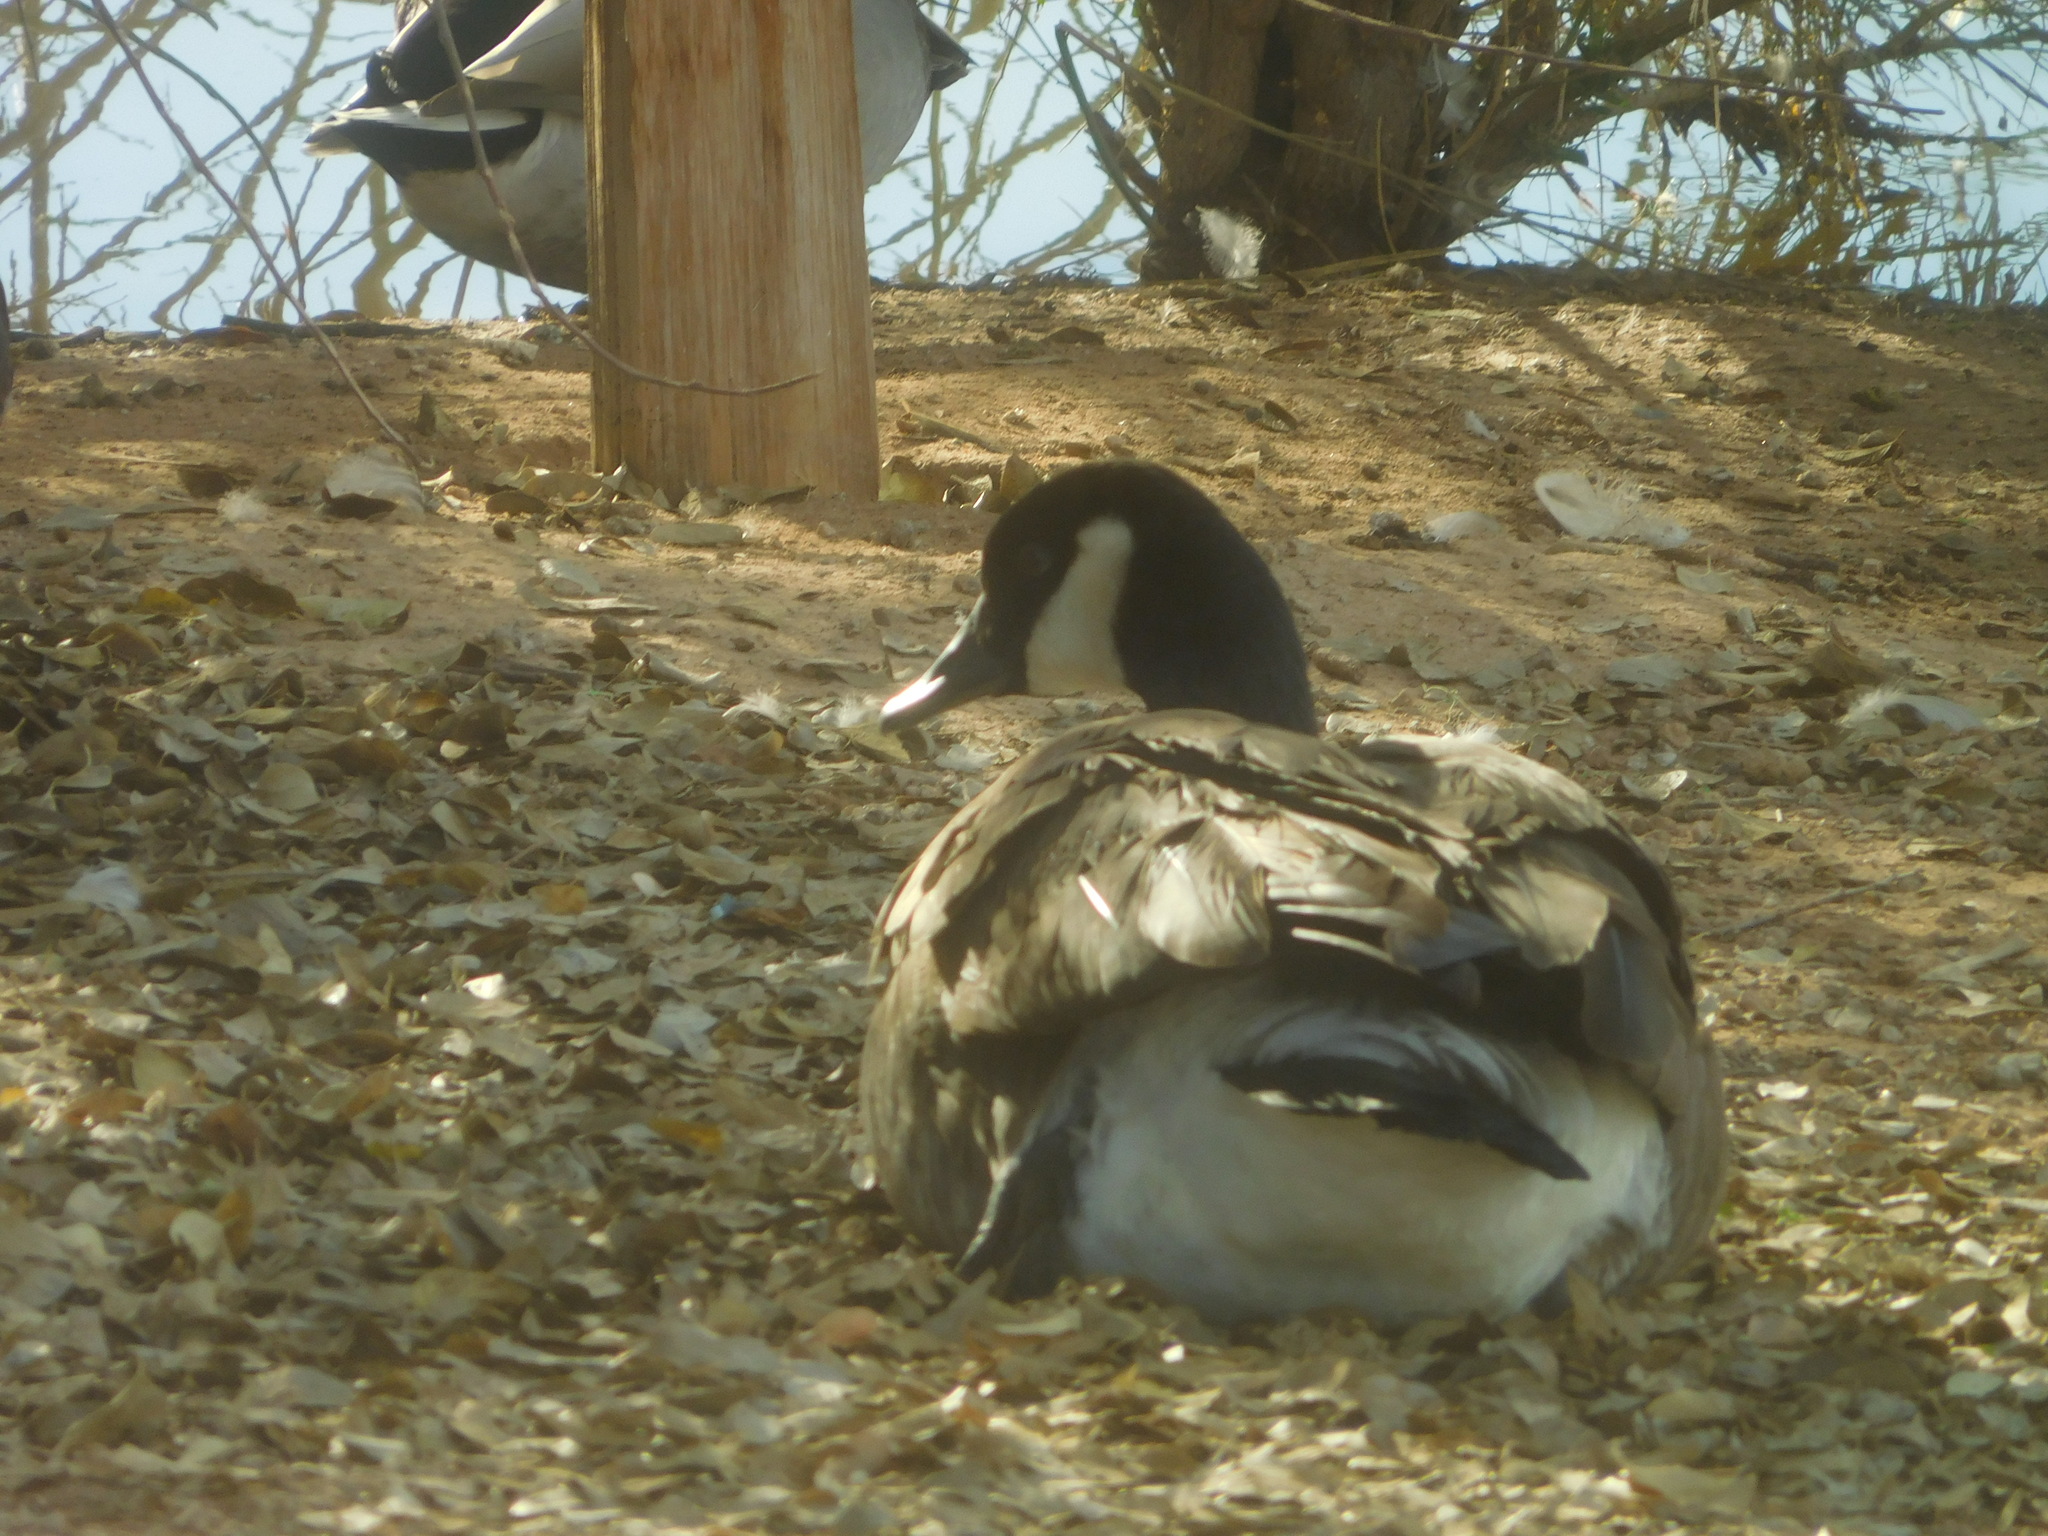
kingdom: Animalia
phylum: Chordata
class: Aves
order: Anseriformes
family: Anatidae
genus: Branta
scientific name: Branta canadensis
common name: Canada goose
